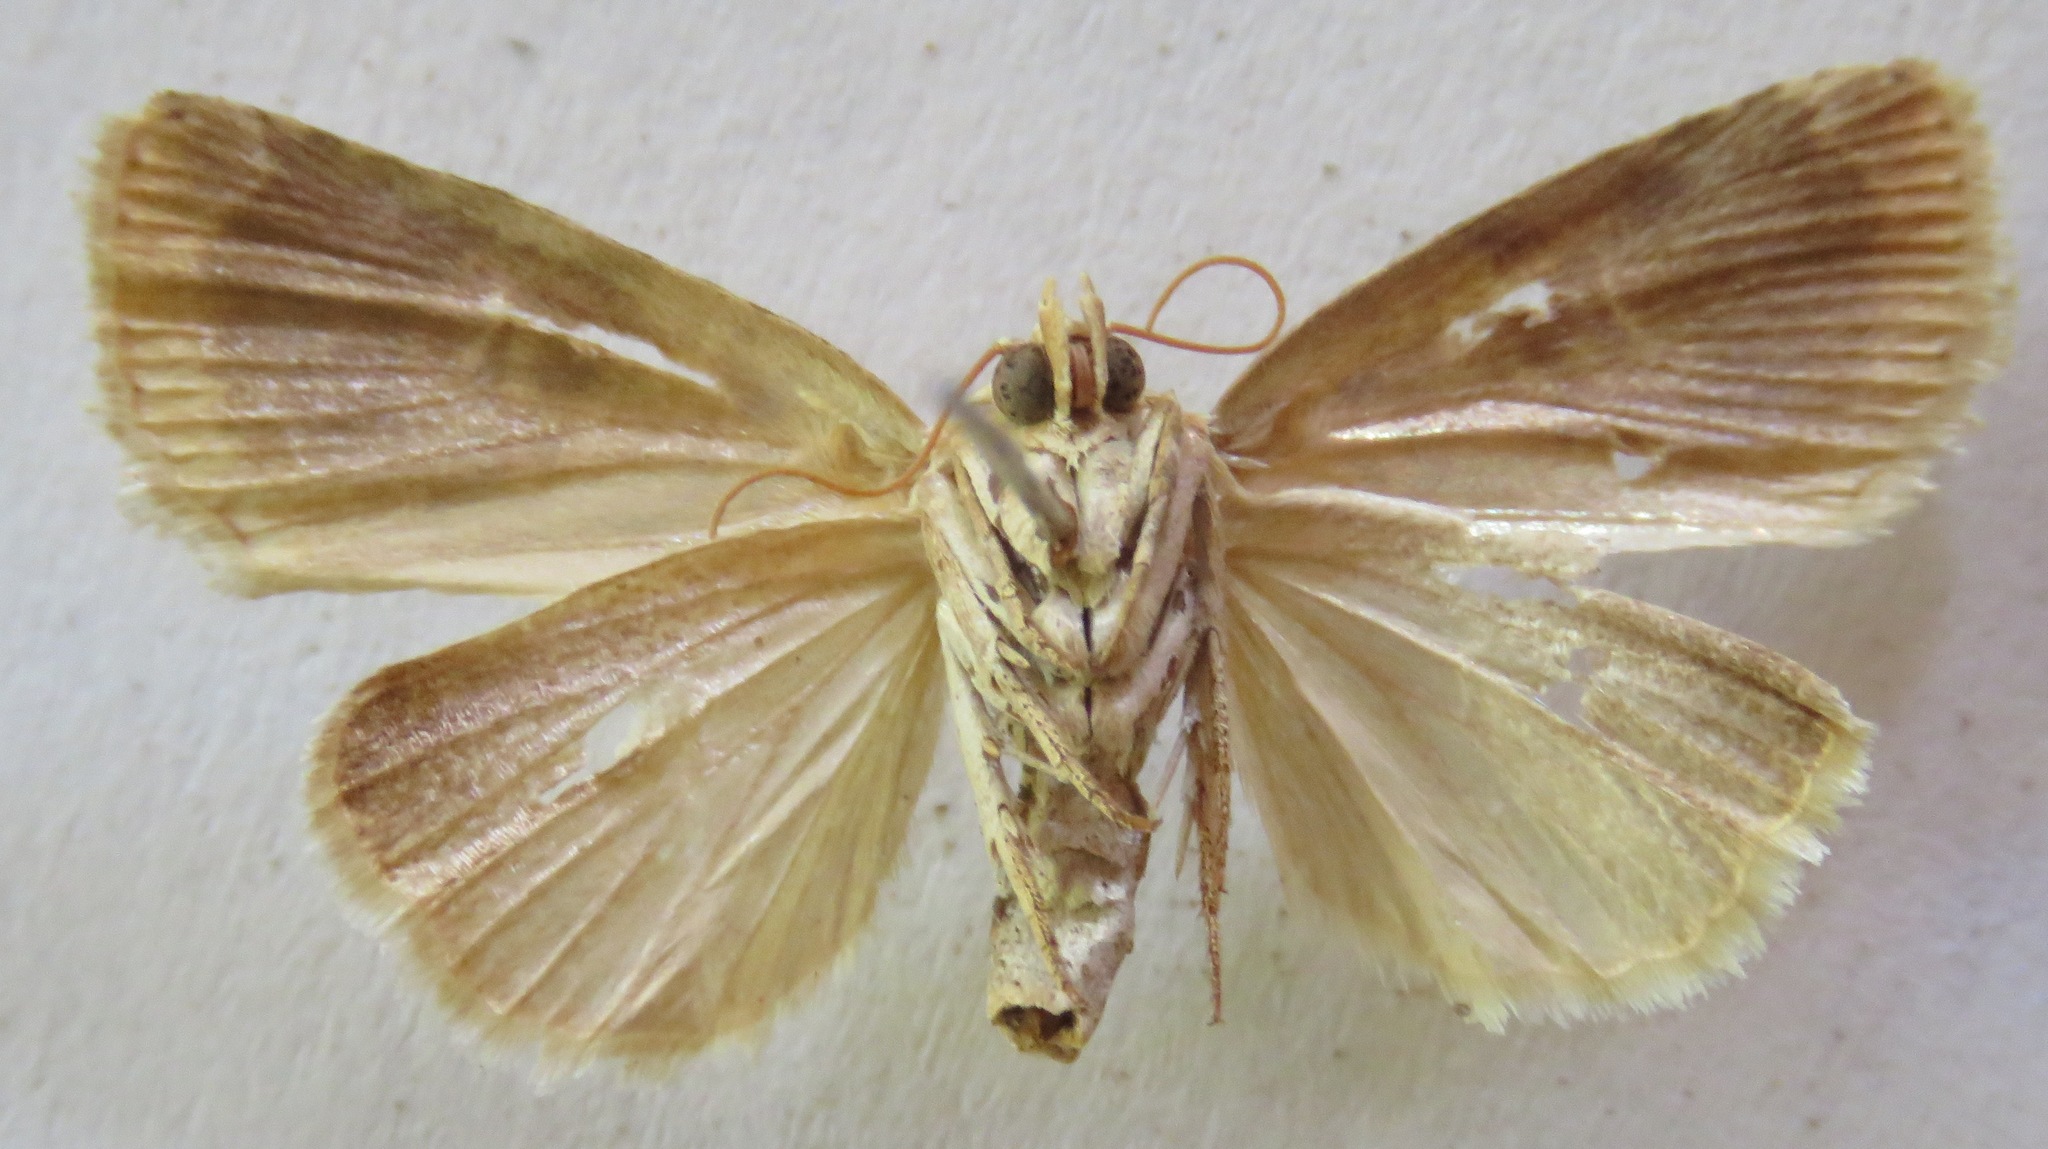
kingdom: Animalia
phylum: Arthropoda
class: Insecta
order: Lepidoptera
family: Noctuidae
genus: Diastema
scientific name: Diastema tigris
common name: Lantana moth
